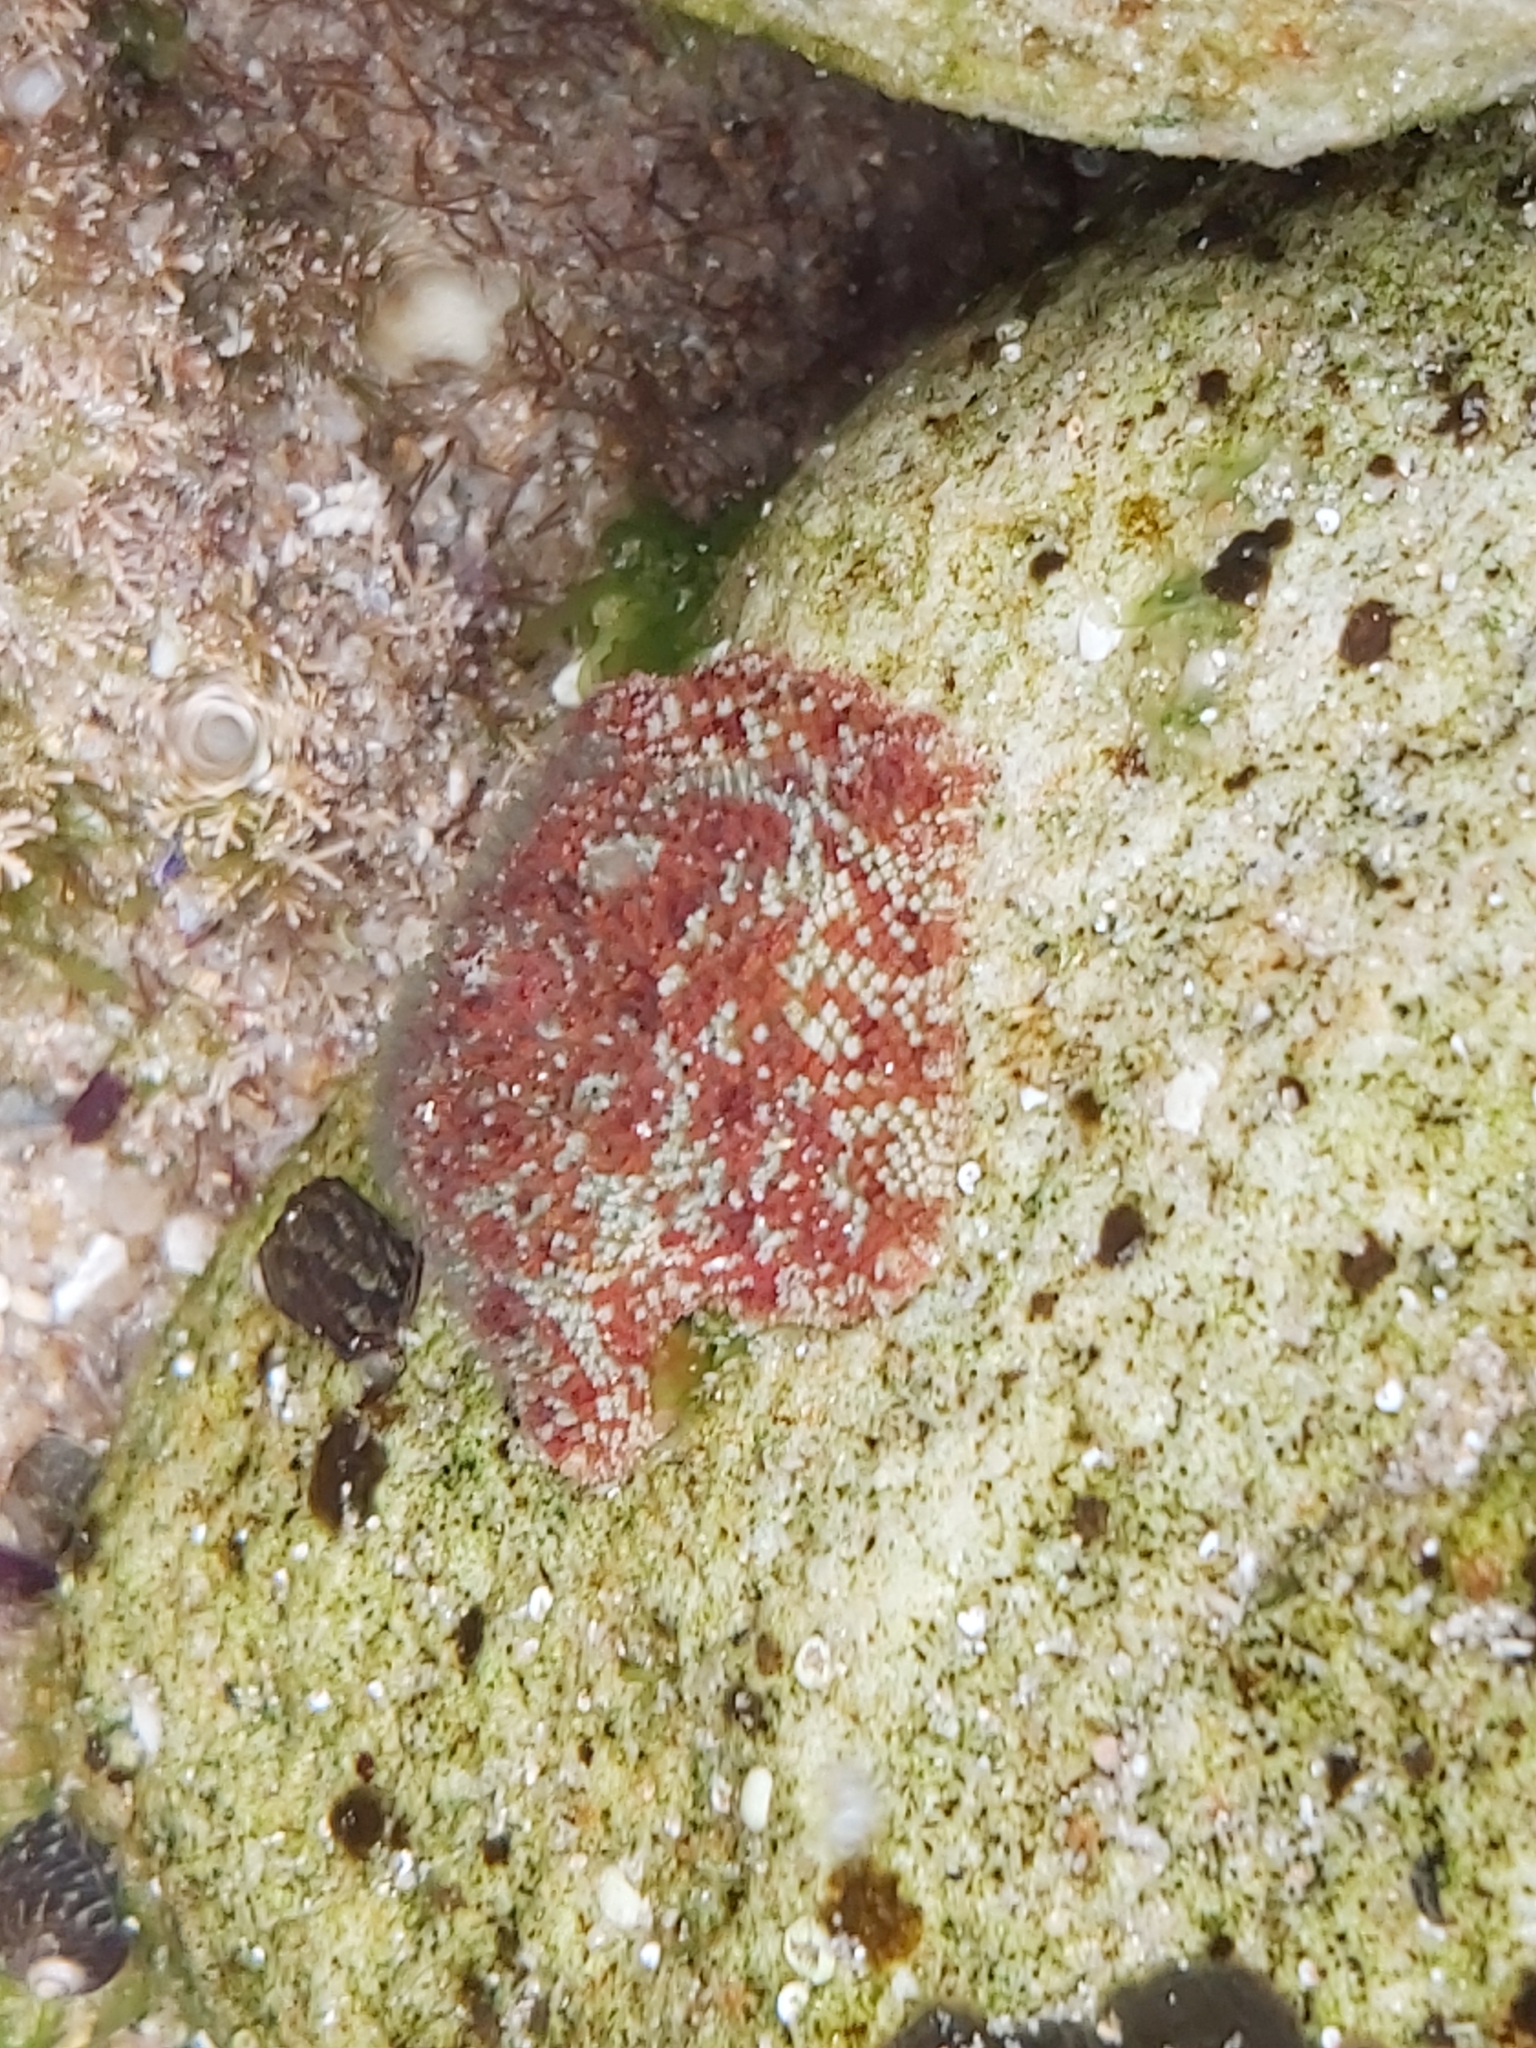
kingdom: Animalia
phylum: Echinodermata
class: Asteroidea
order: Valvatida
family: Asterinidae
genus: Parvulastra
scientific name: Parvulastra exigua
